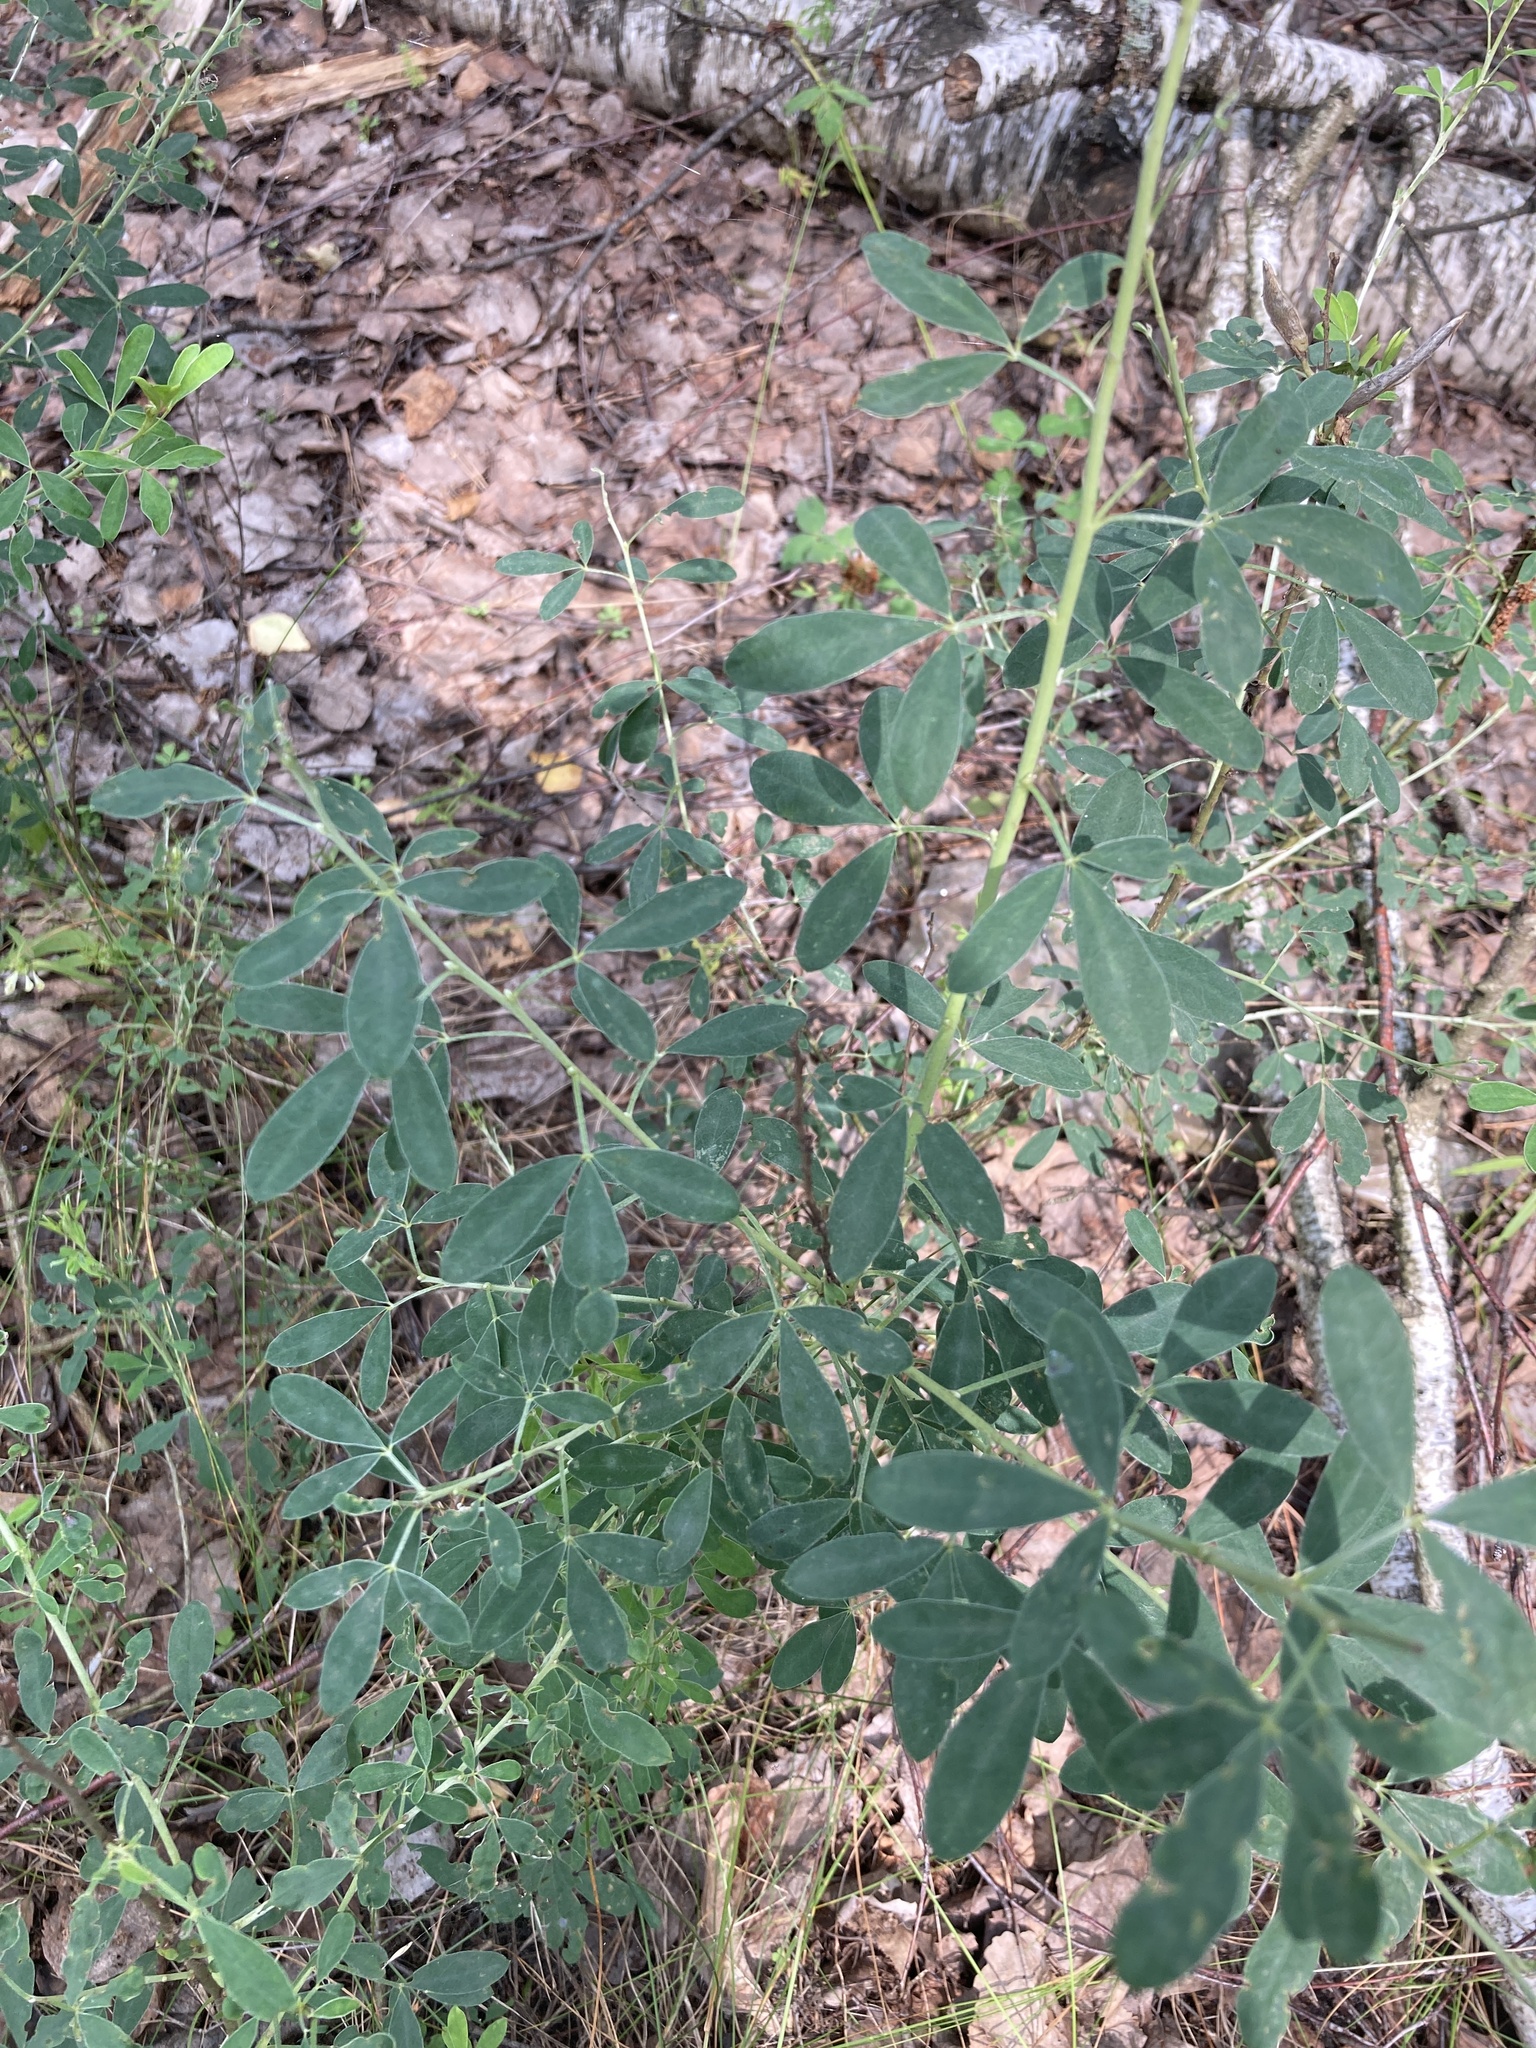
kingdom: Plantae
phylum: Tracheophyta
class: Magnoliopsida
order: Fabales
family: Fabaceae
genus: Chamaecytisus
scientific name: Chamaecytisus ruthenicus
